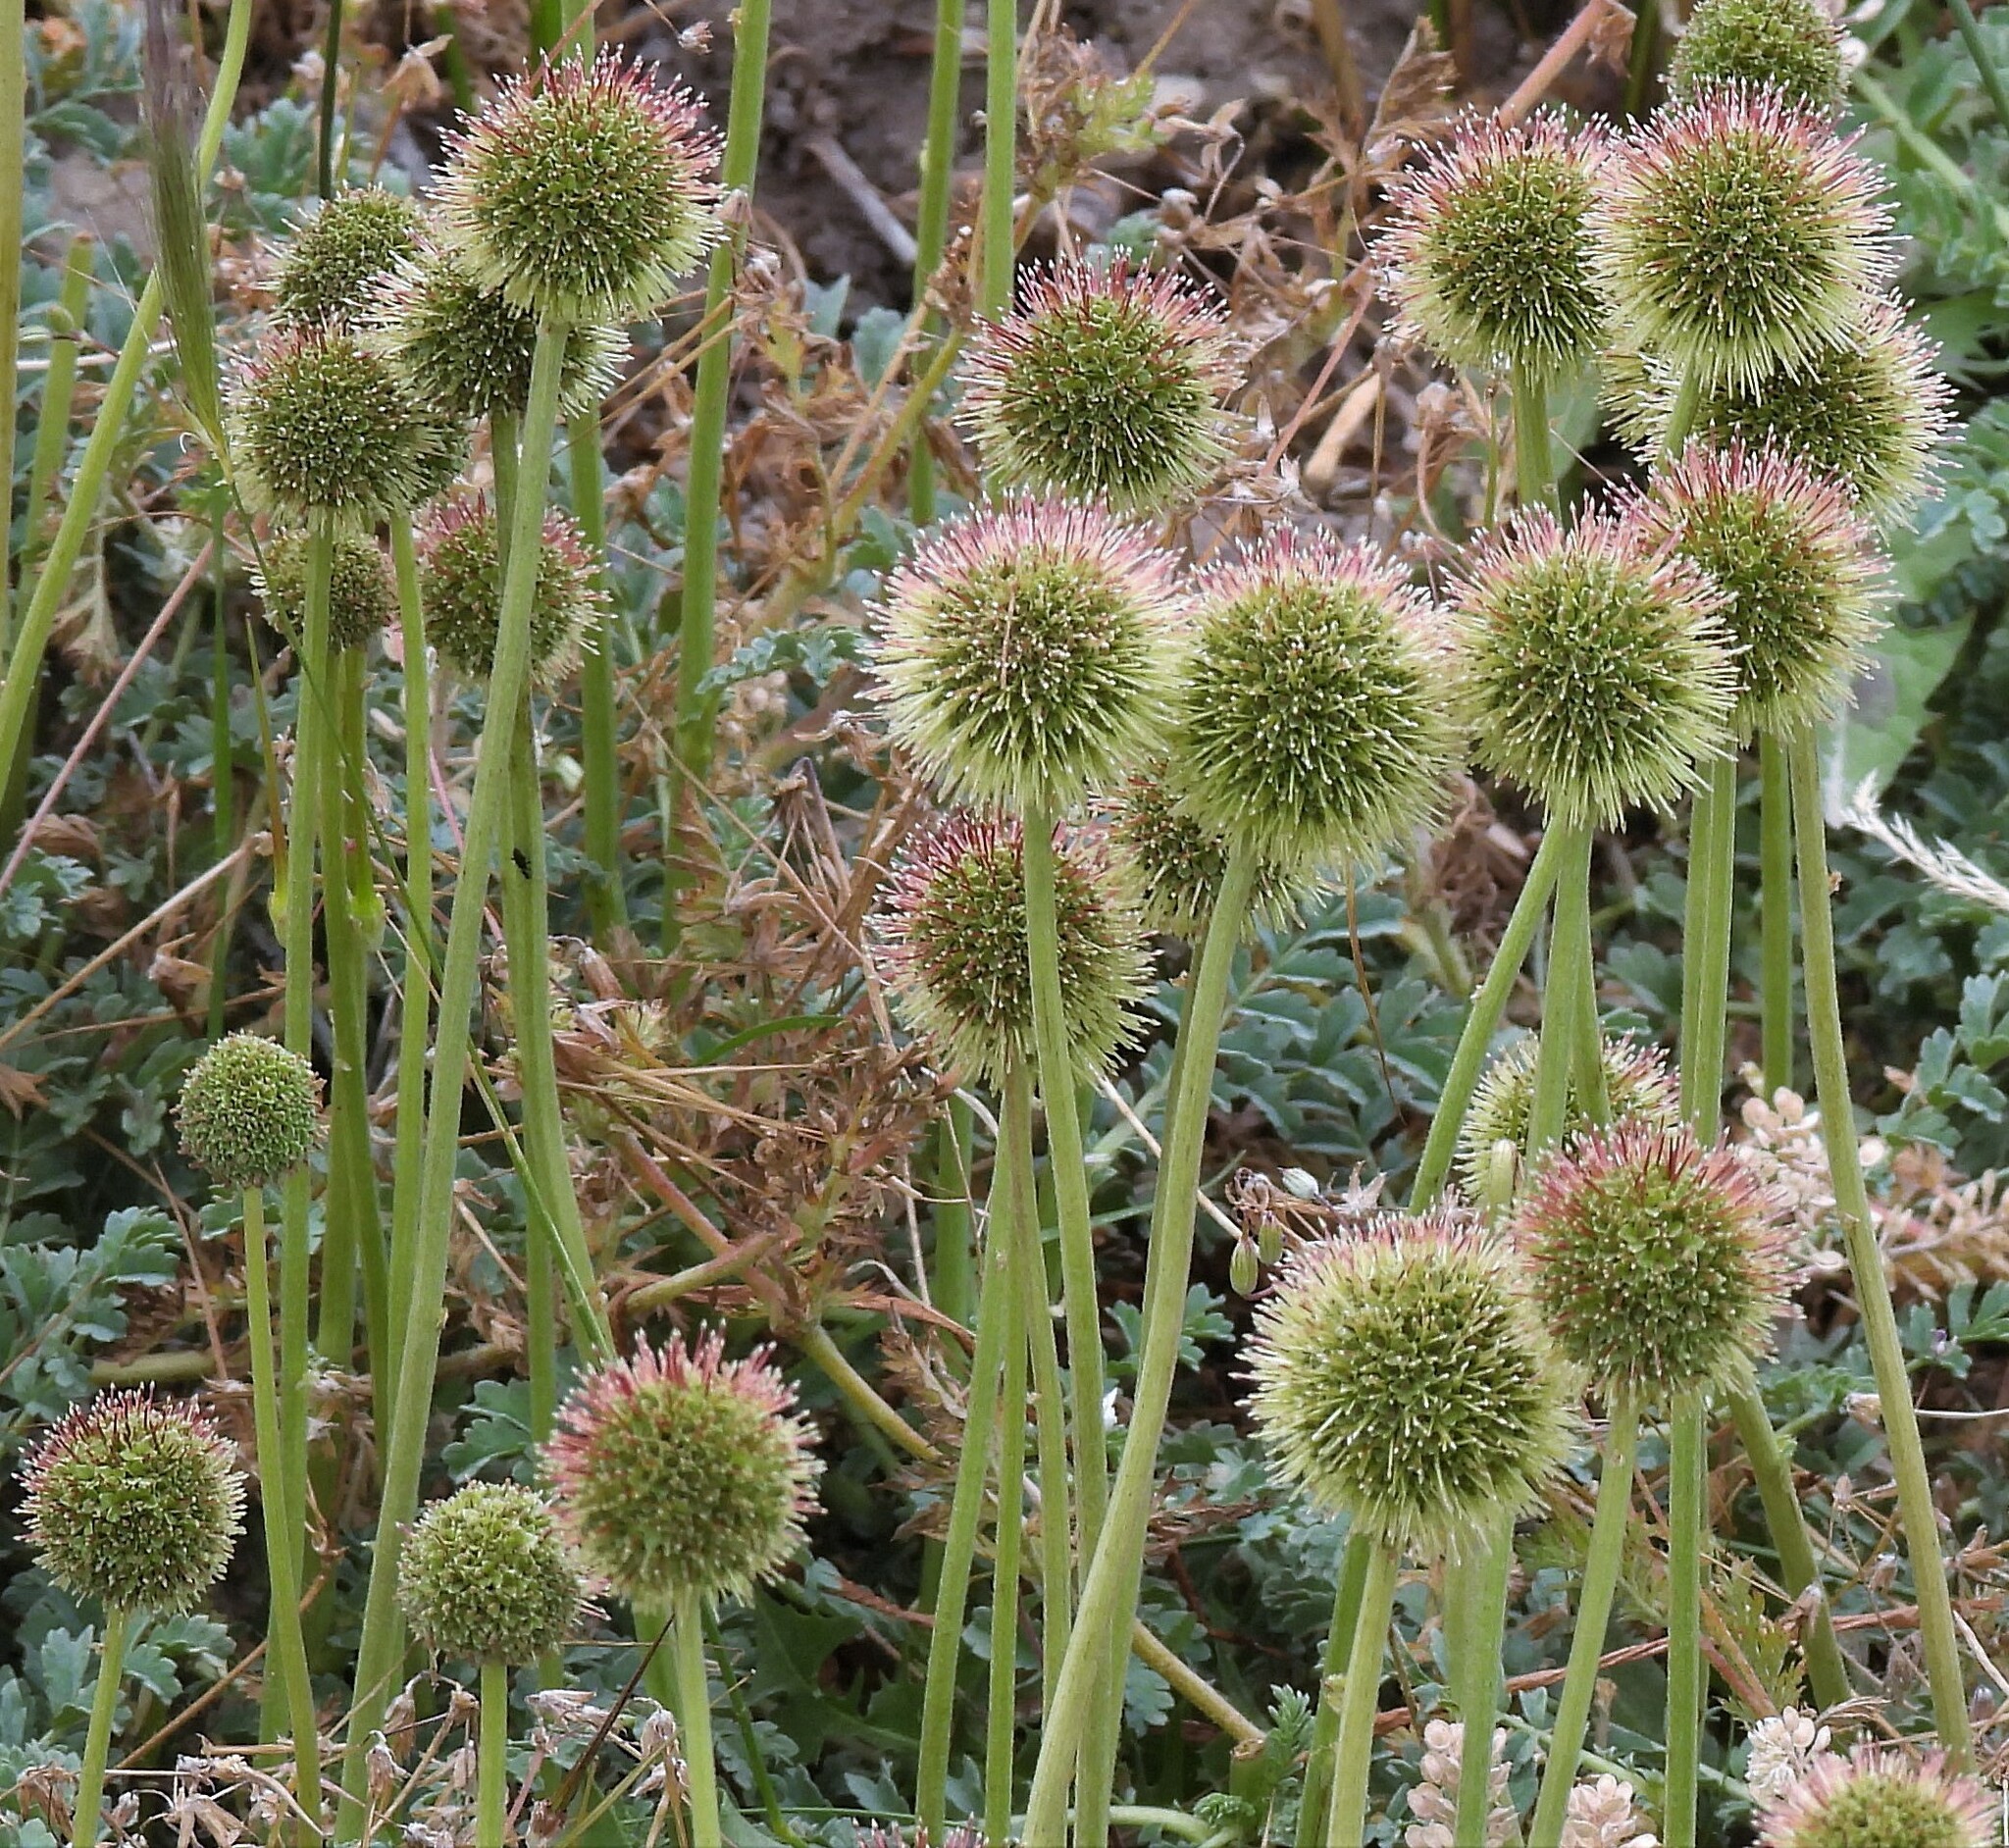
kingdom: Plantae
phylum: Tracheophyta
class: Magnoliopsida
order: Rosales
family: Rosaceae
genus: Acaena
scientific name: Acaena magellanica
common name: New zealand burr
